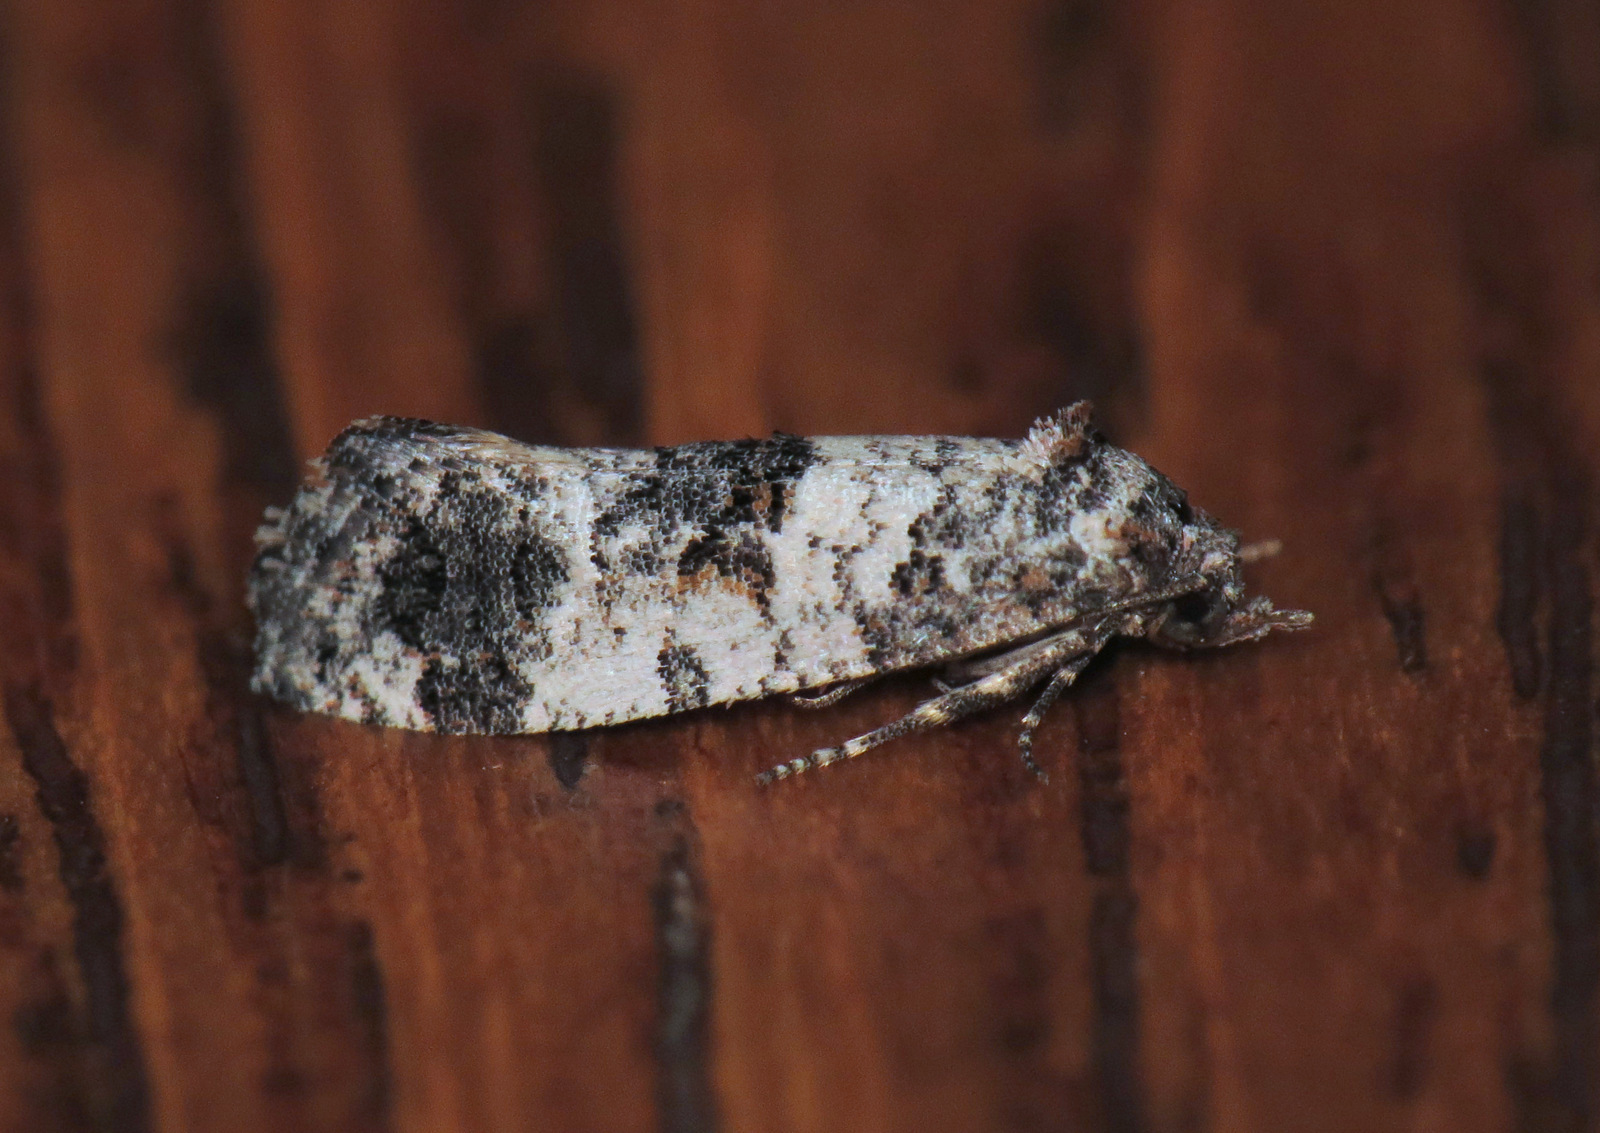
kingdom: Animalia
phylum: Arthropoda
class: Insecta
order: Lepidoptera
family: Tortricidae
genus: Rudenia
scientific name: Rudenia leguminana
